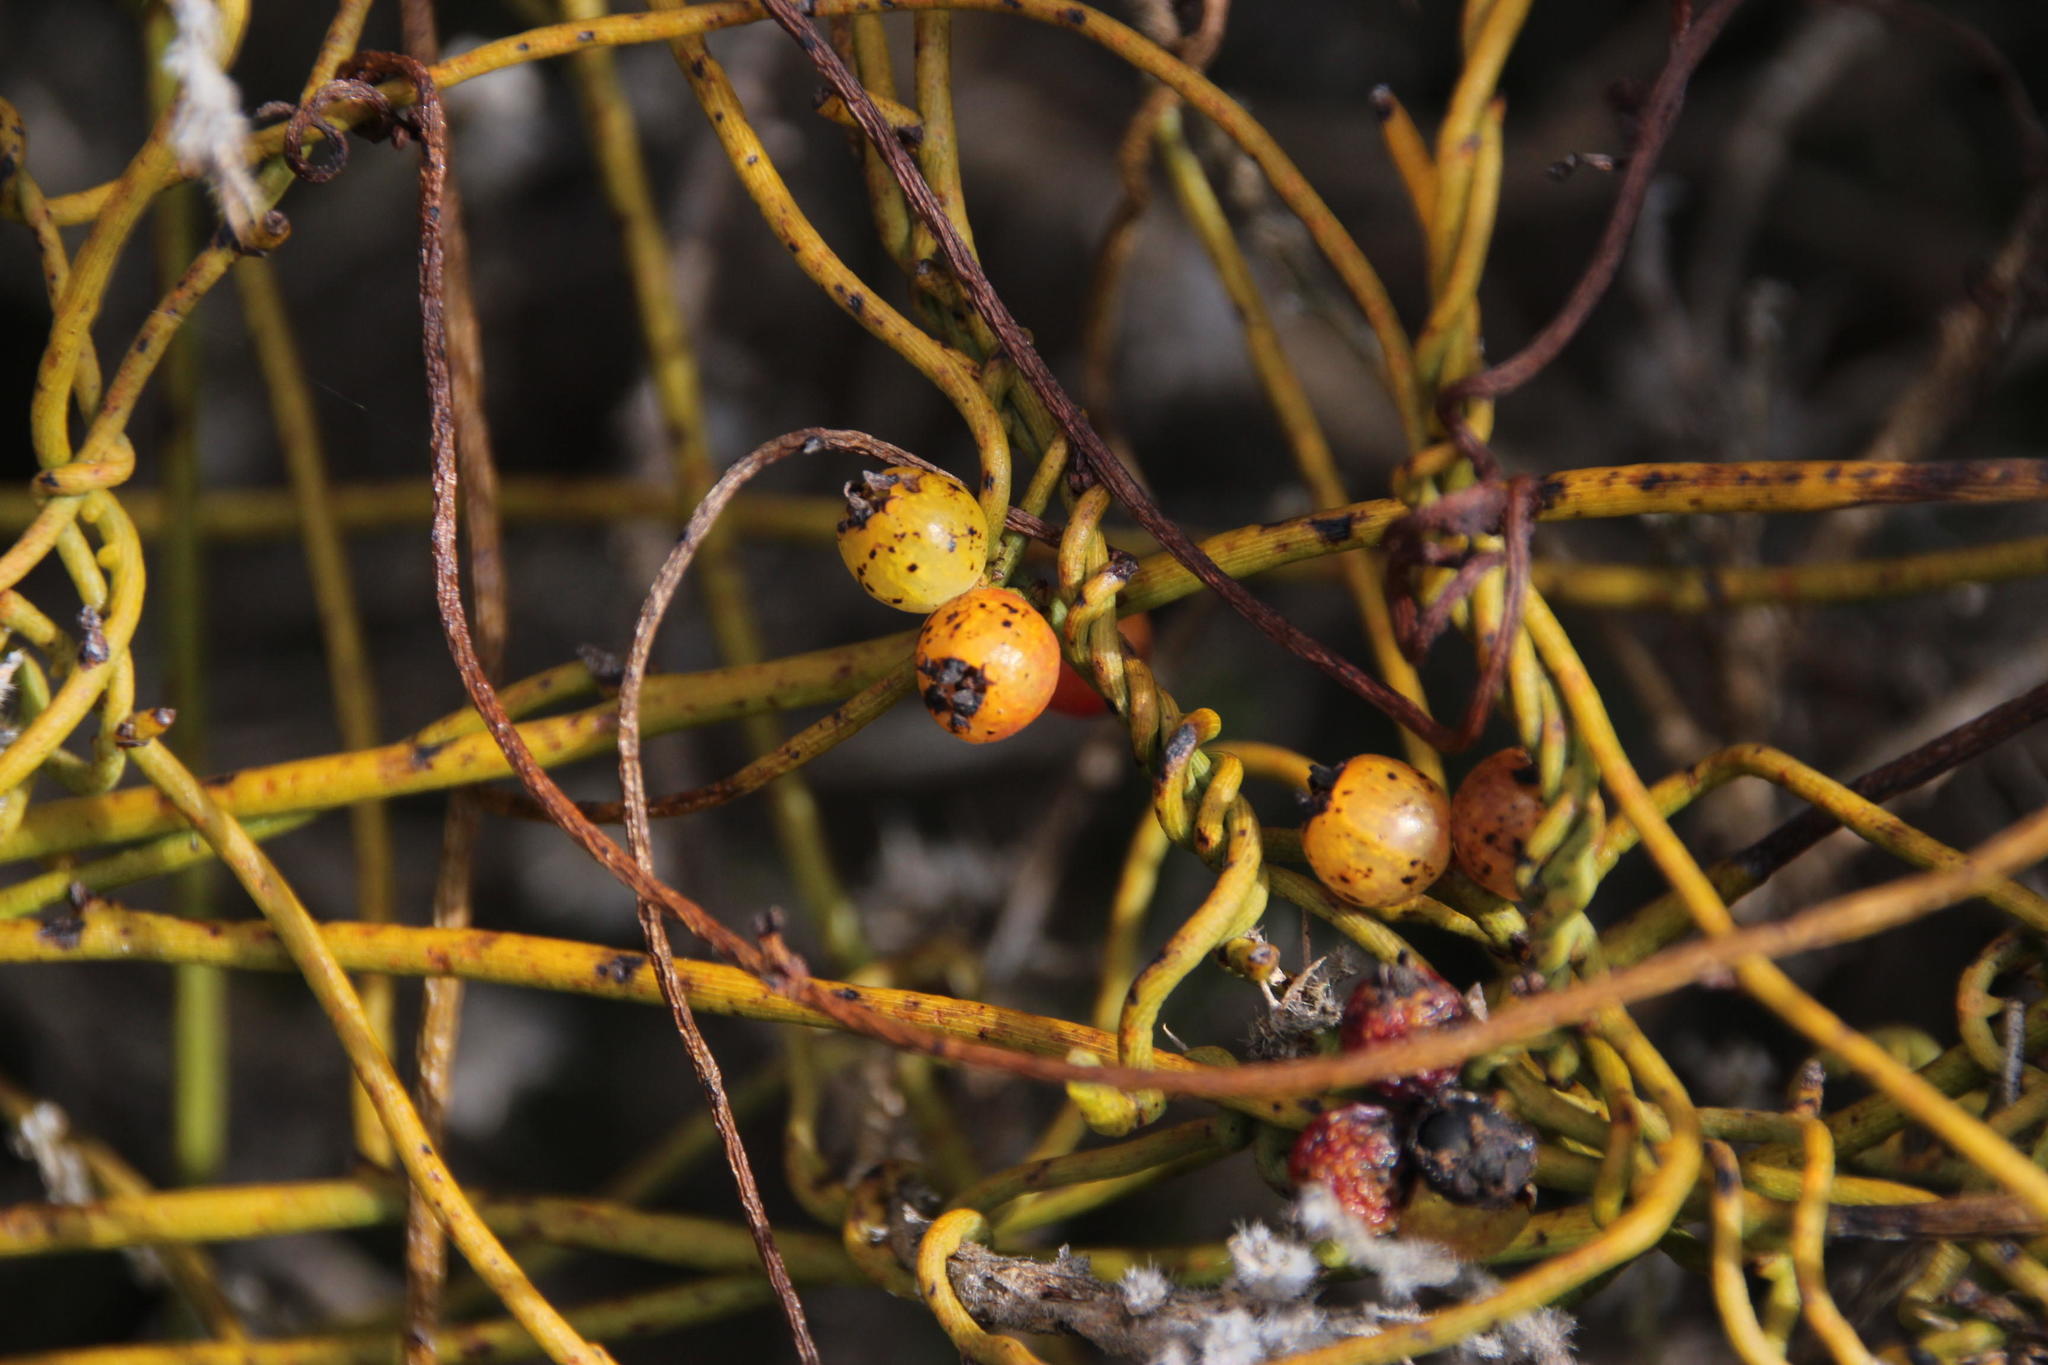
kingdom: Plantae
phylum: Tracheophyta
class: Magnoliopsida
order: Laurales
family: Lauraceae
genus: Cassytha
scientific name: Cassytha ciliolata
